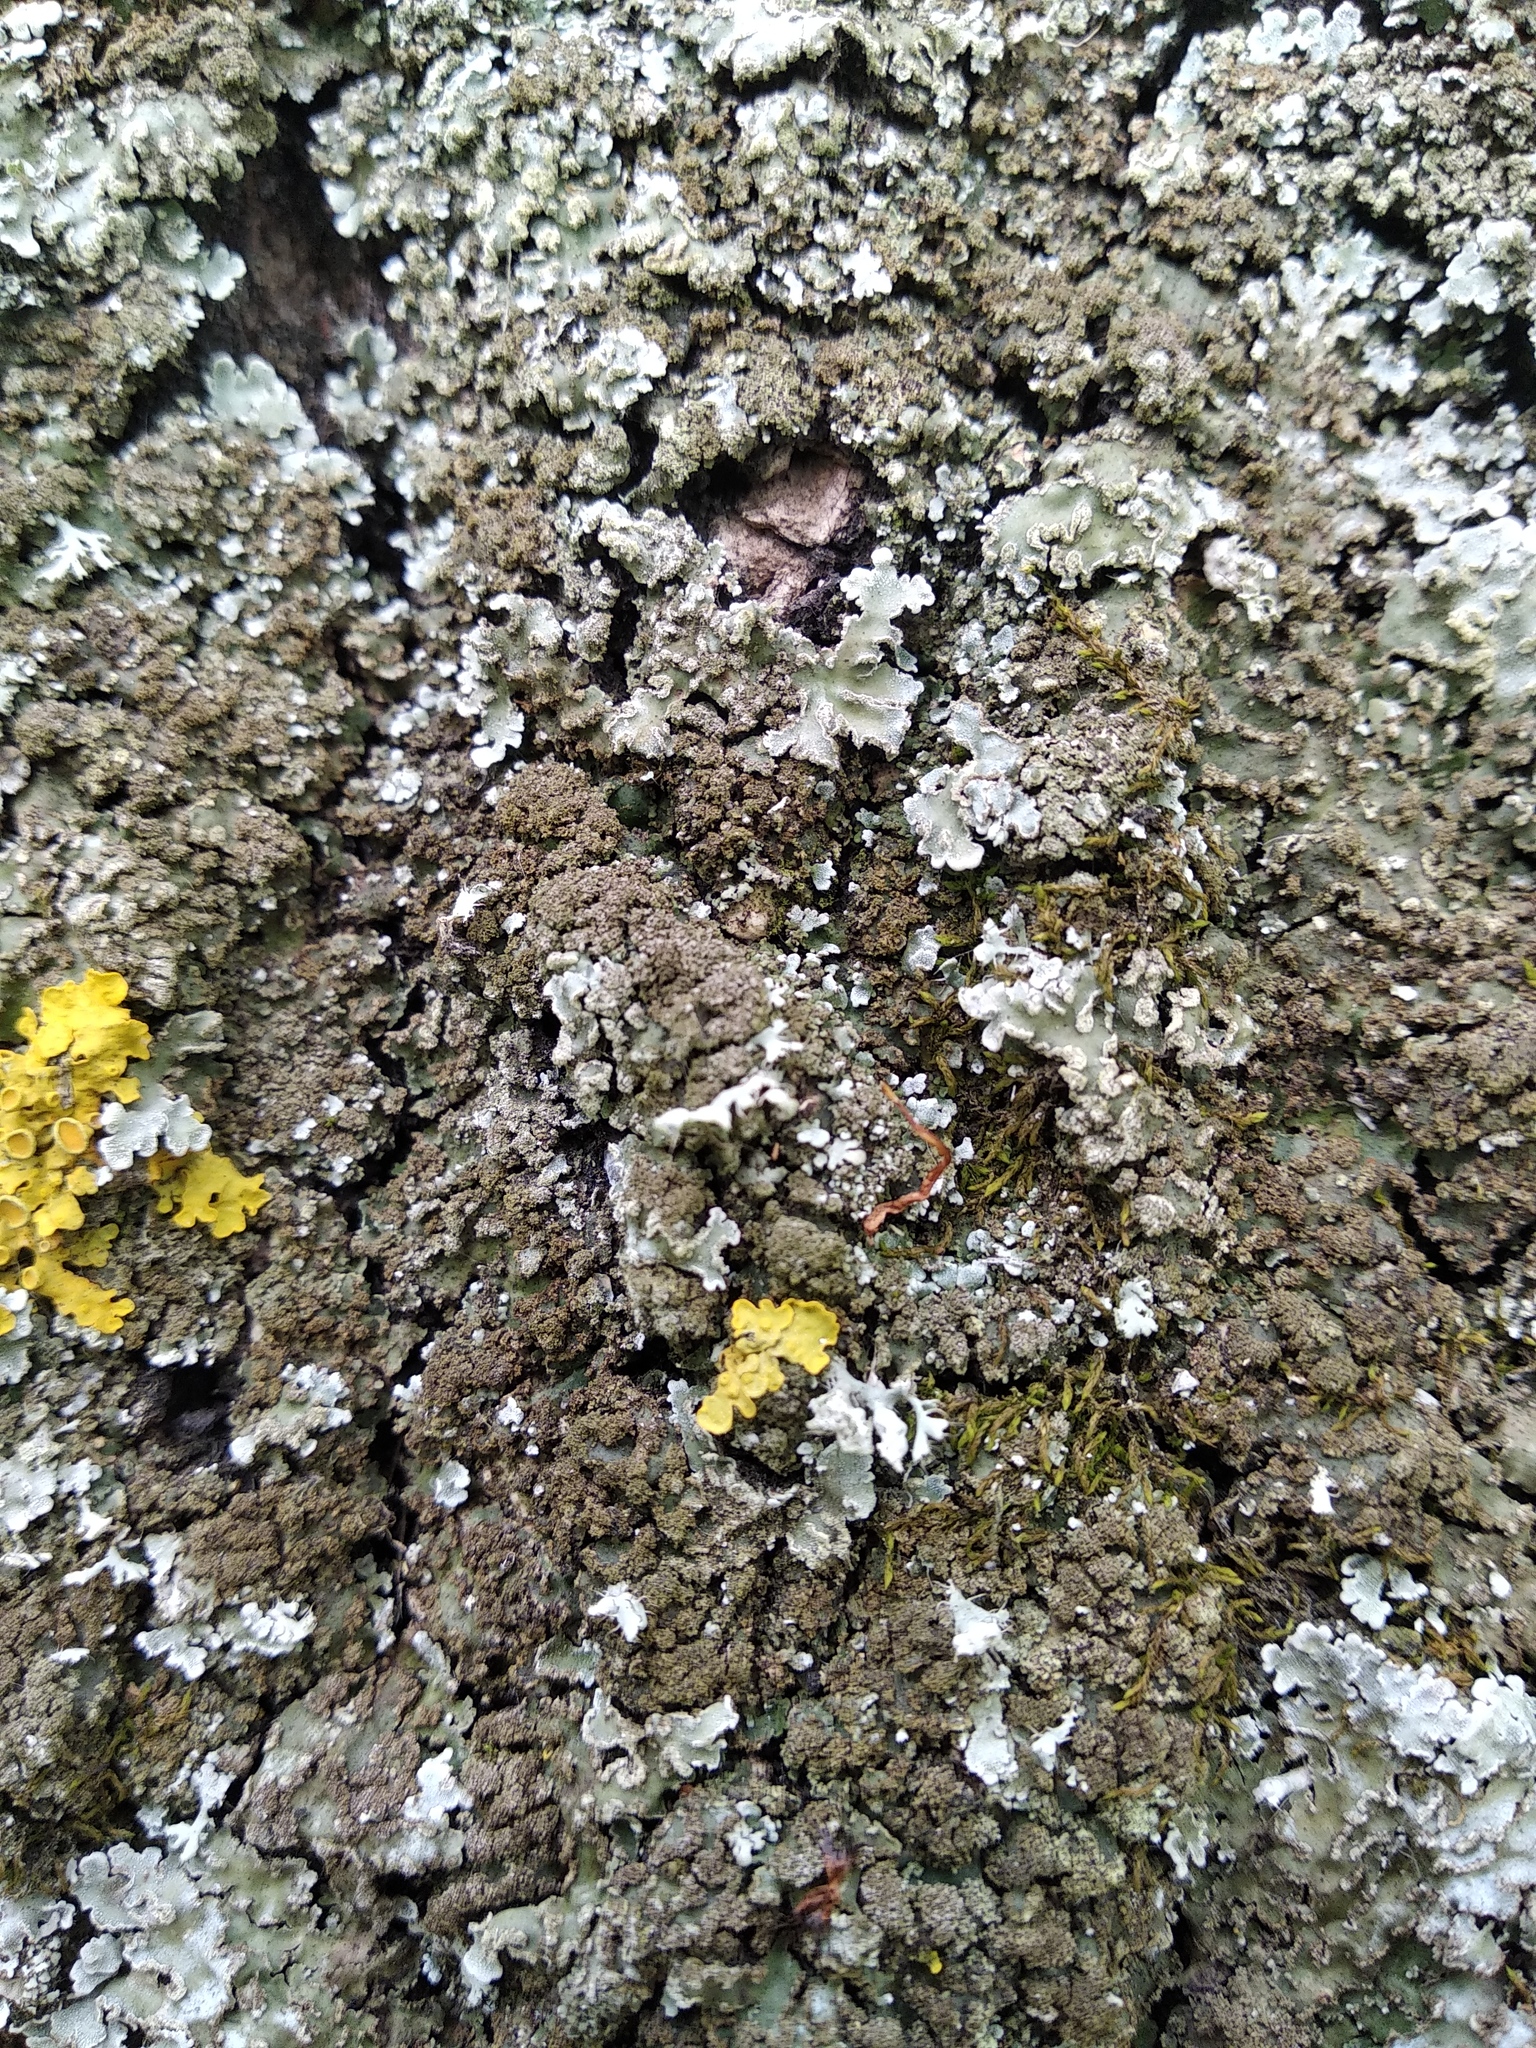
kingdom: Fungi
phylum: Ascomycota
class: Lecanoromycetes
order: Caliciales
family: Physciaceae
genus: Physconia
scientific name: Physconia enteroxantha
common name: Yellow-edged frost lichen
